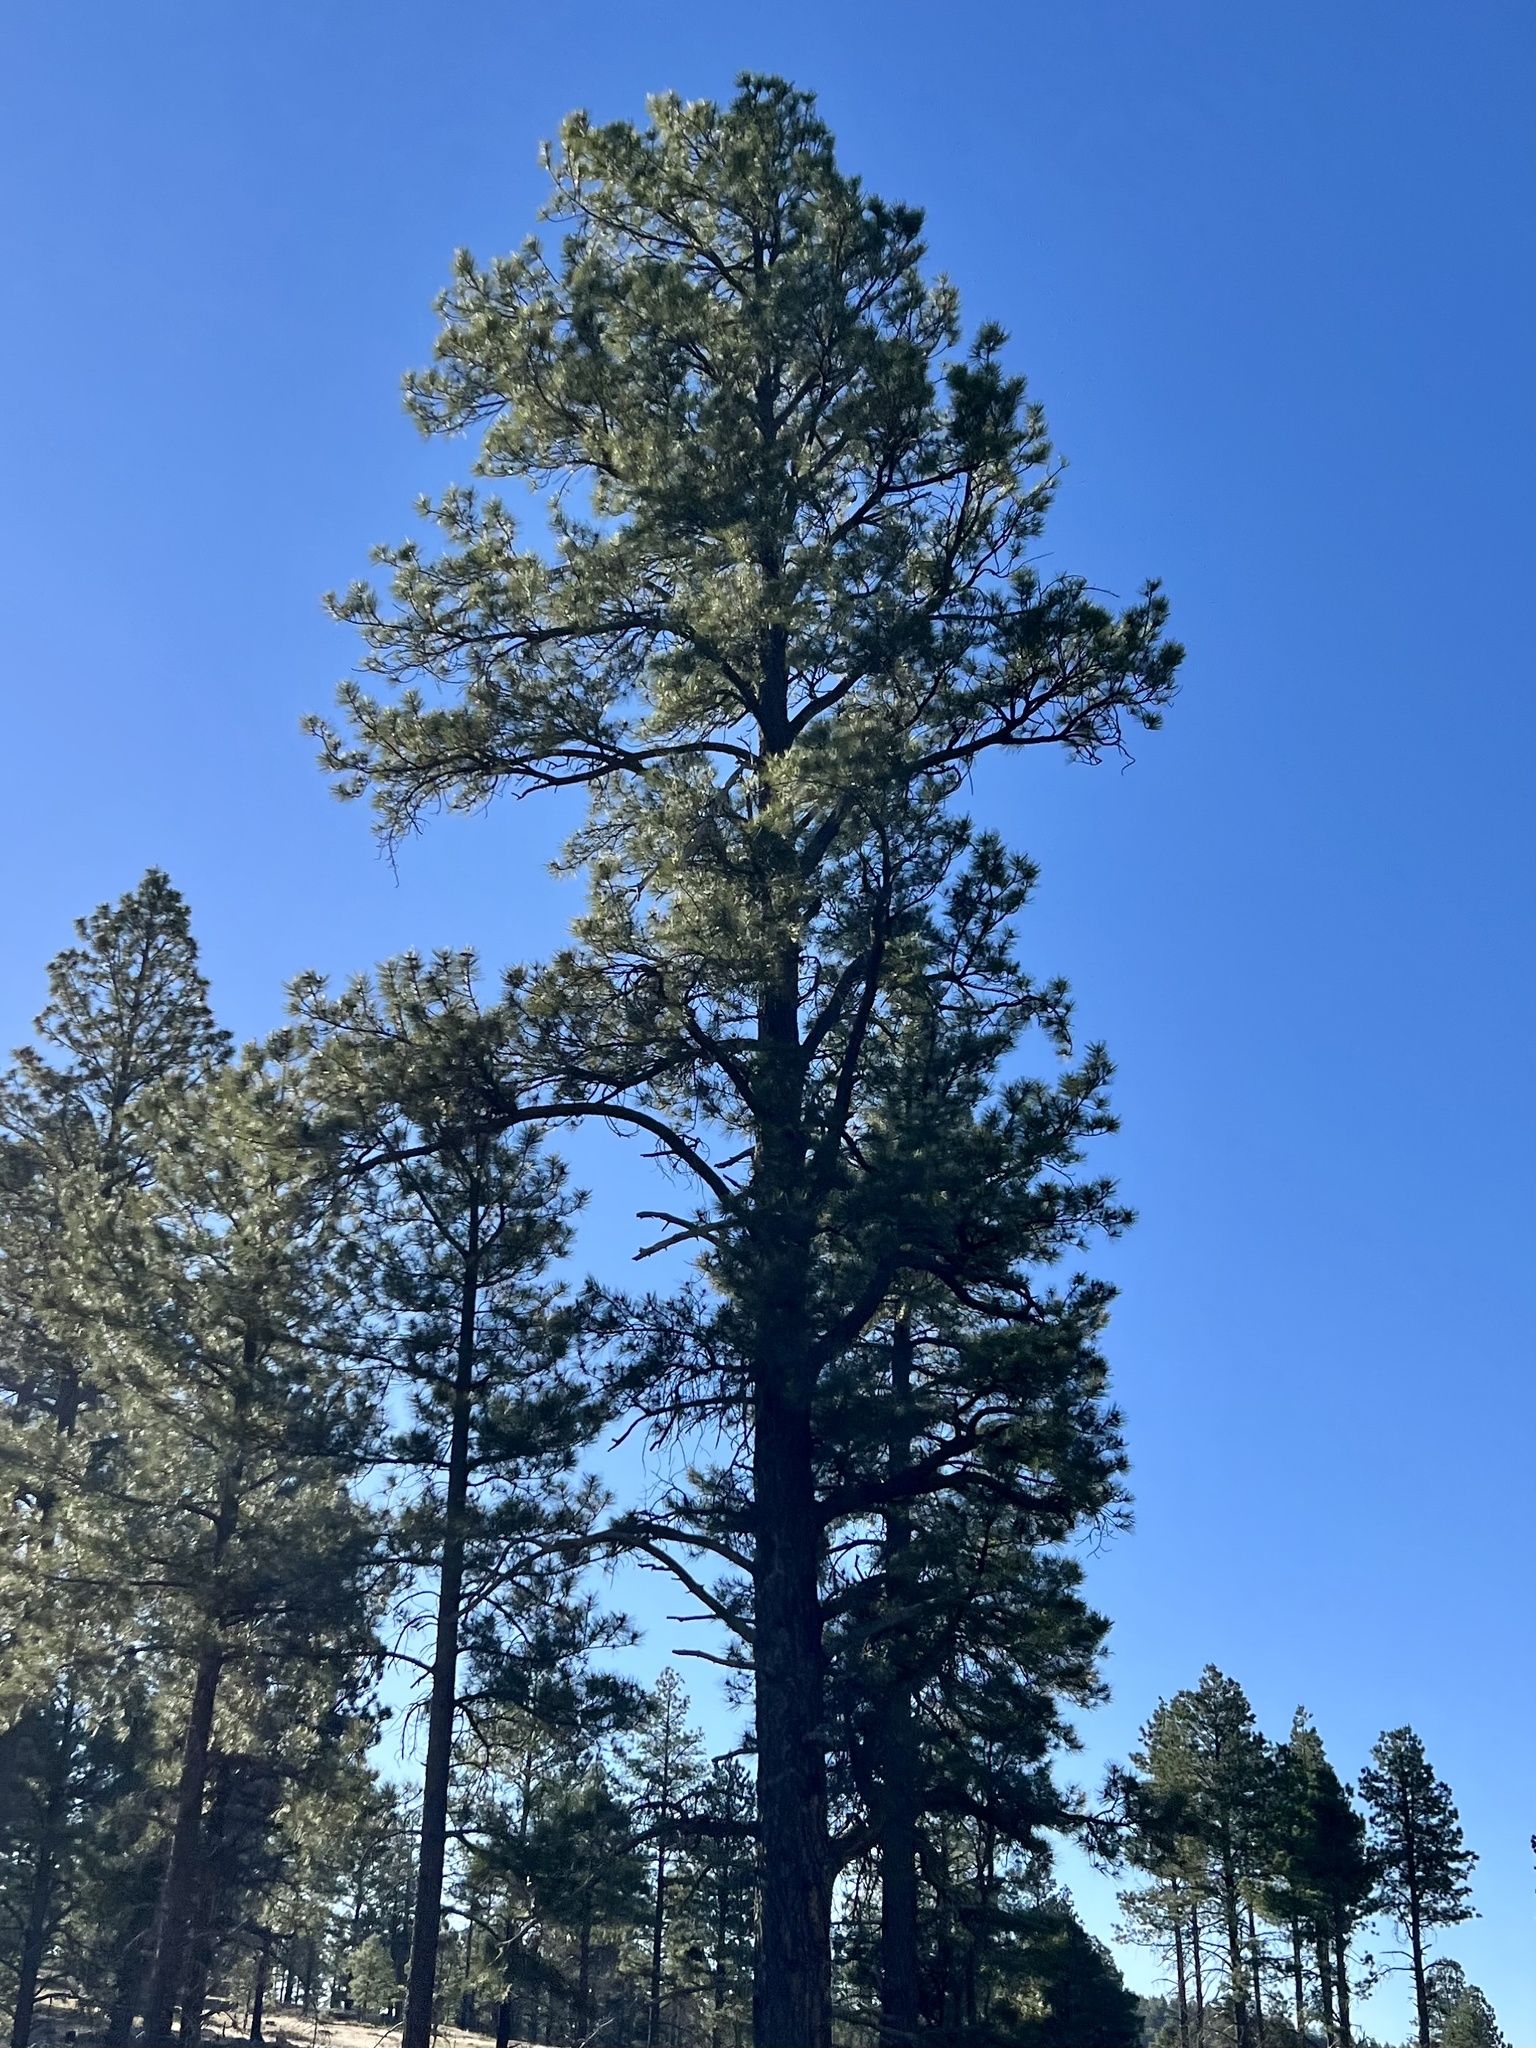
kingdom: Plantae
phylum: Tracheophyta
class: Pinopsida
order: Pinales
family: Pinaceae
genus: Pinus
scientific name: Pinus ponderosa
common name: Western yellow-pine
